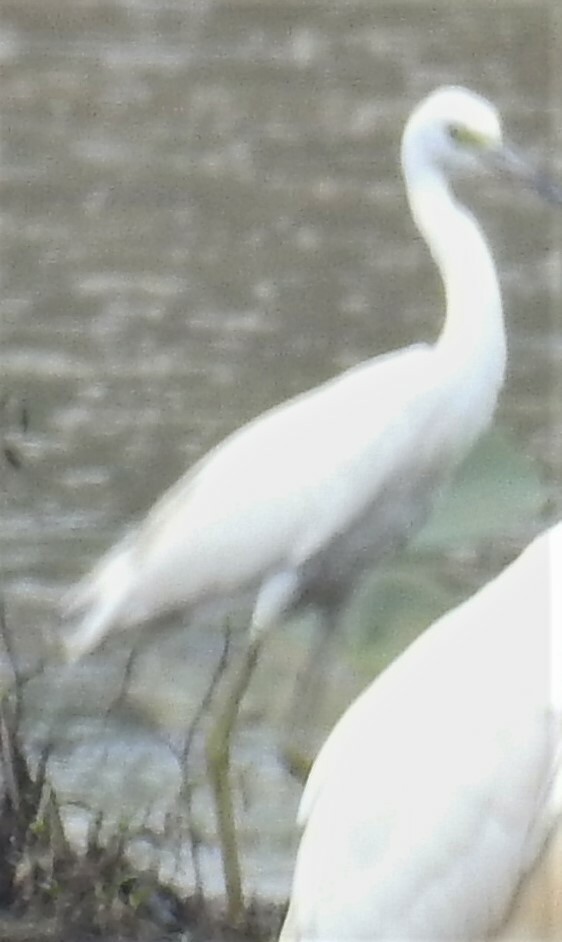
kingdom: Animalia
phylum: Chordata
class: Aves
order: Pelecaniformes
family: Ardeidae
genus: Egretta
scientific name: Egretta caerulea
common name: Little blue heron
